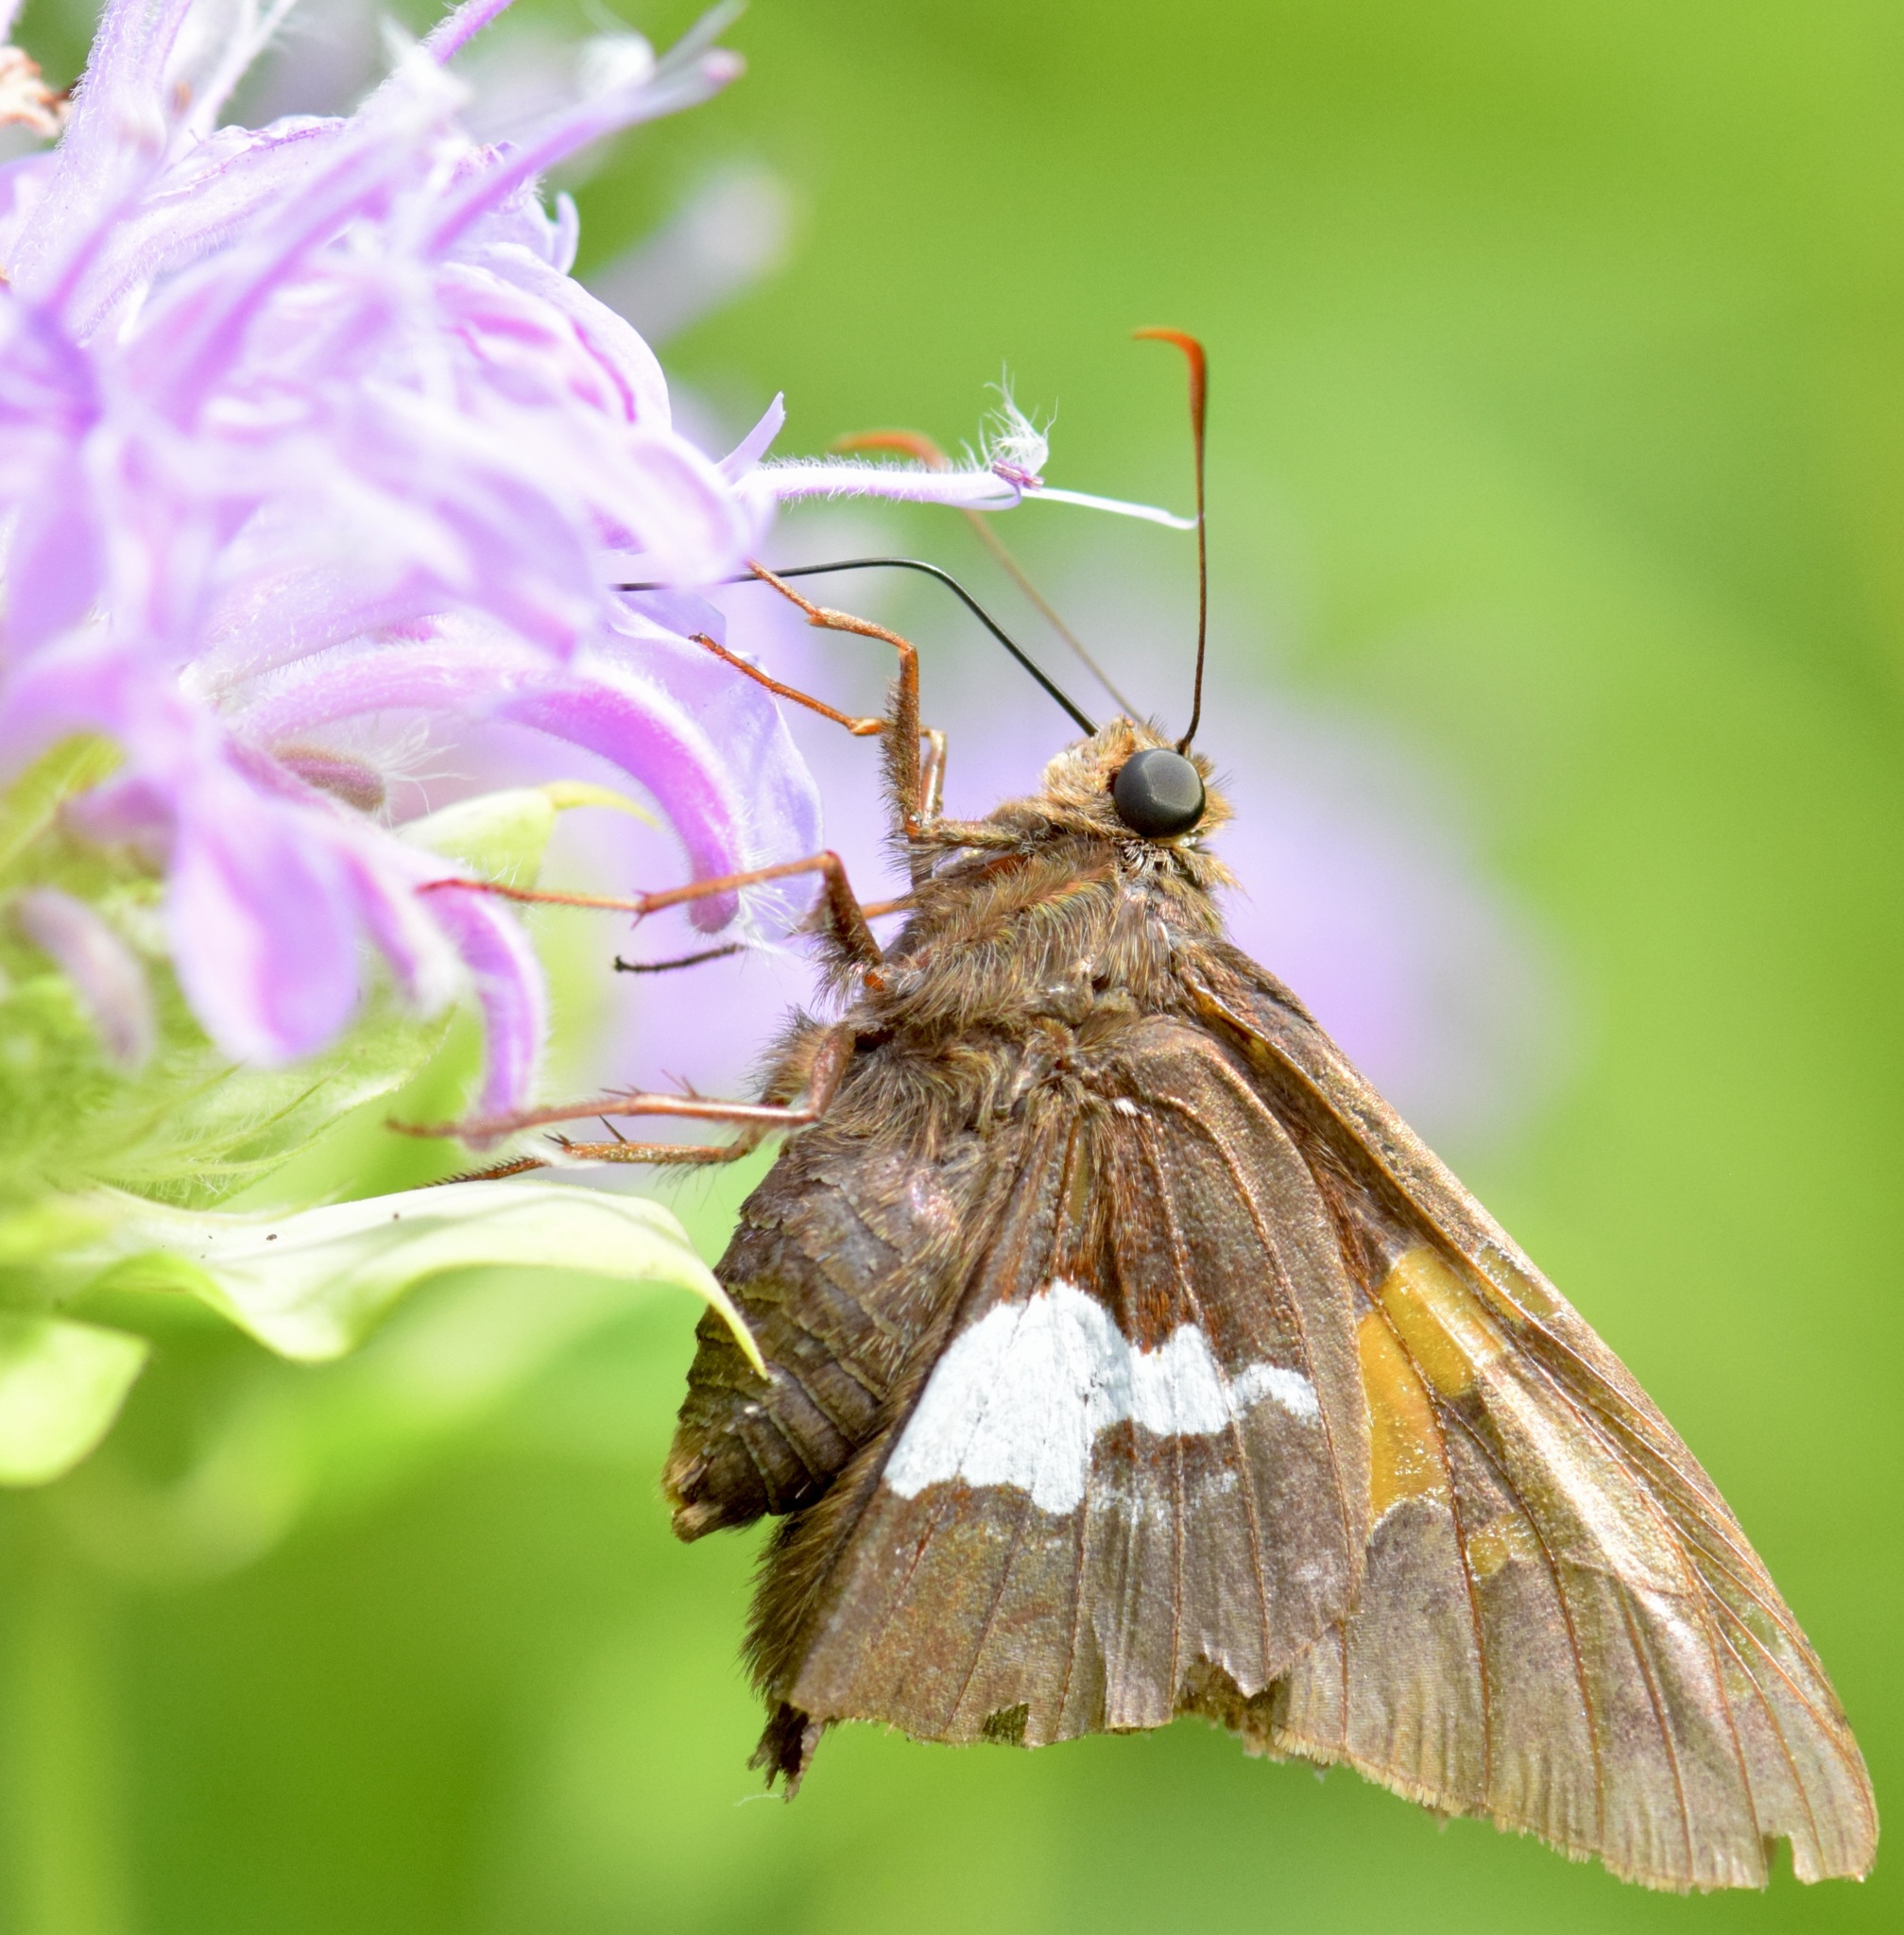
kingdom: Animalia
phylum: Arthropoda
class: Insecta
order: Lepidoptera
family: Hesperiidae
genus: Epargyreus
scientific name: Epargyreus clarus
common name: Silver-spotted skipper
